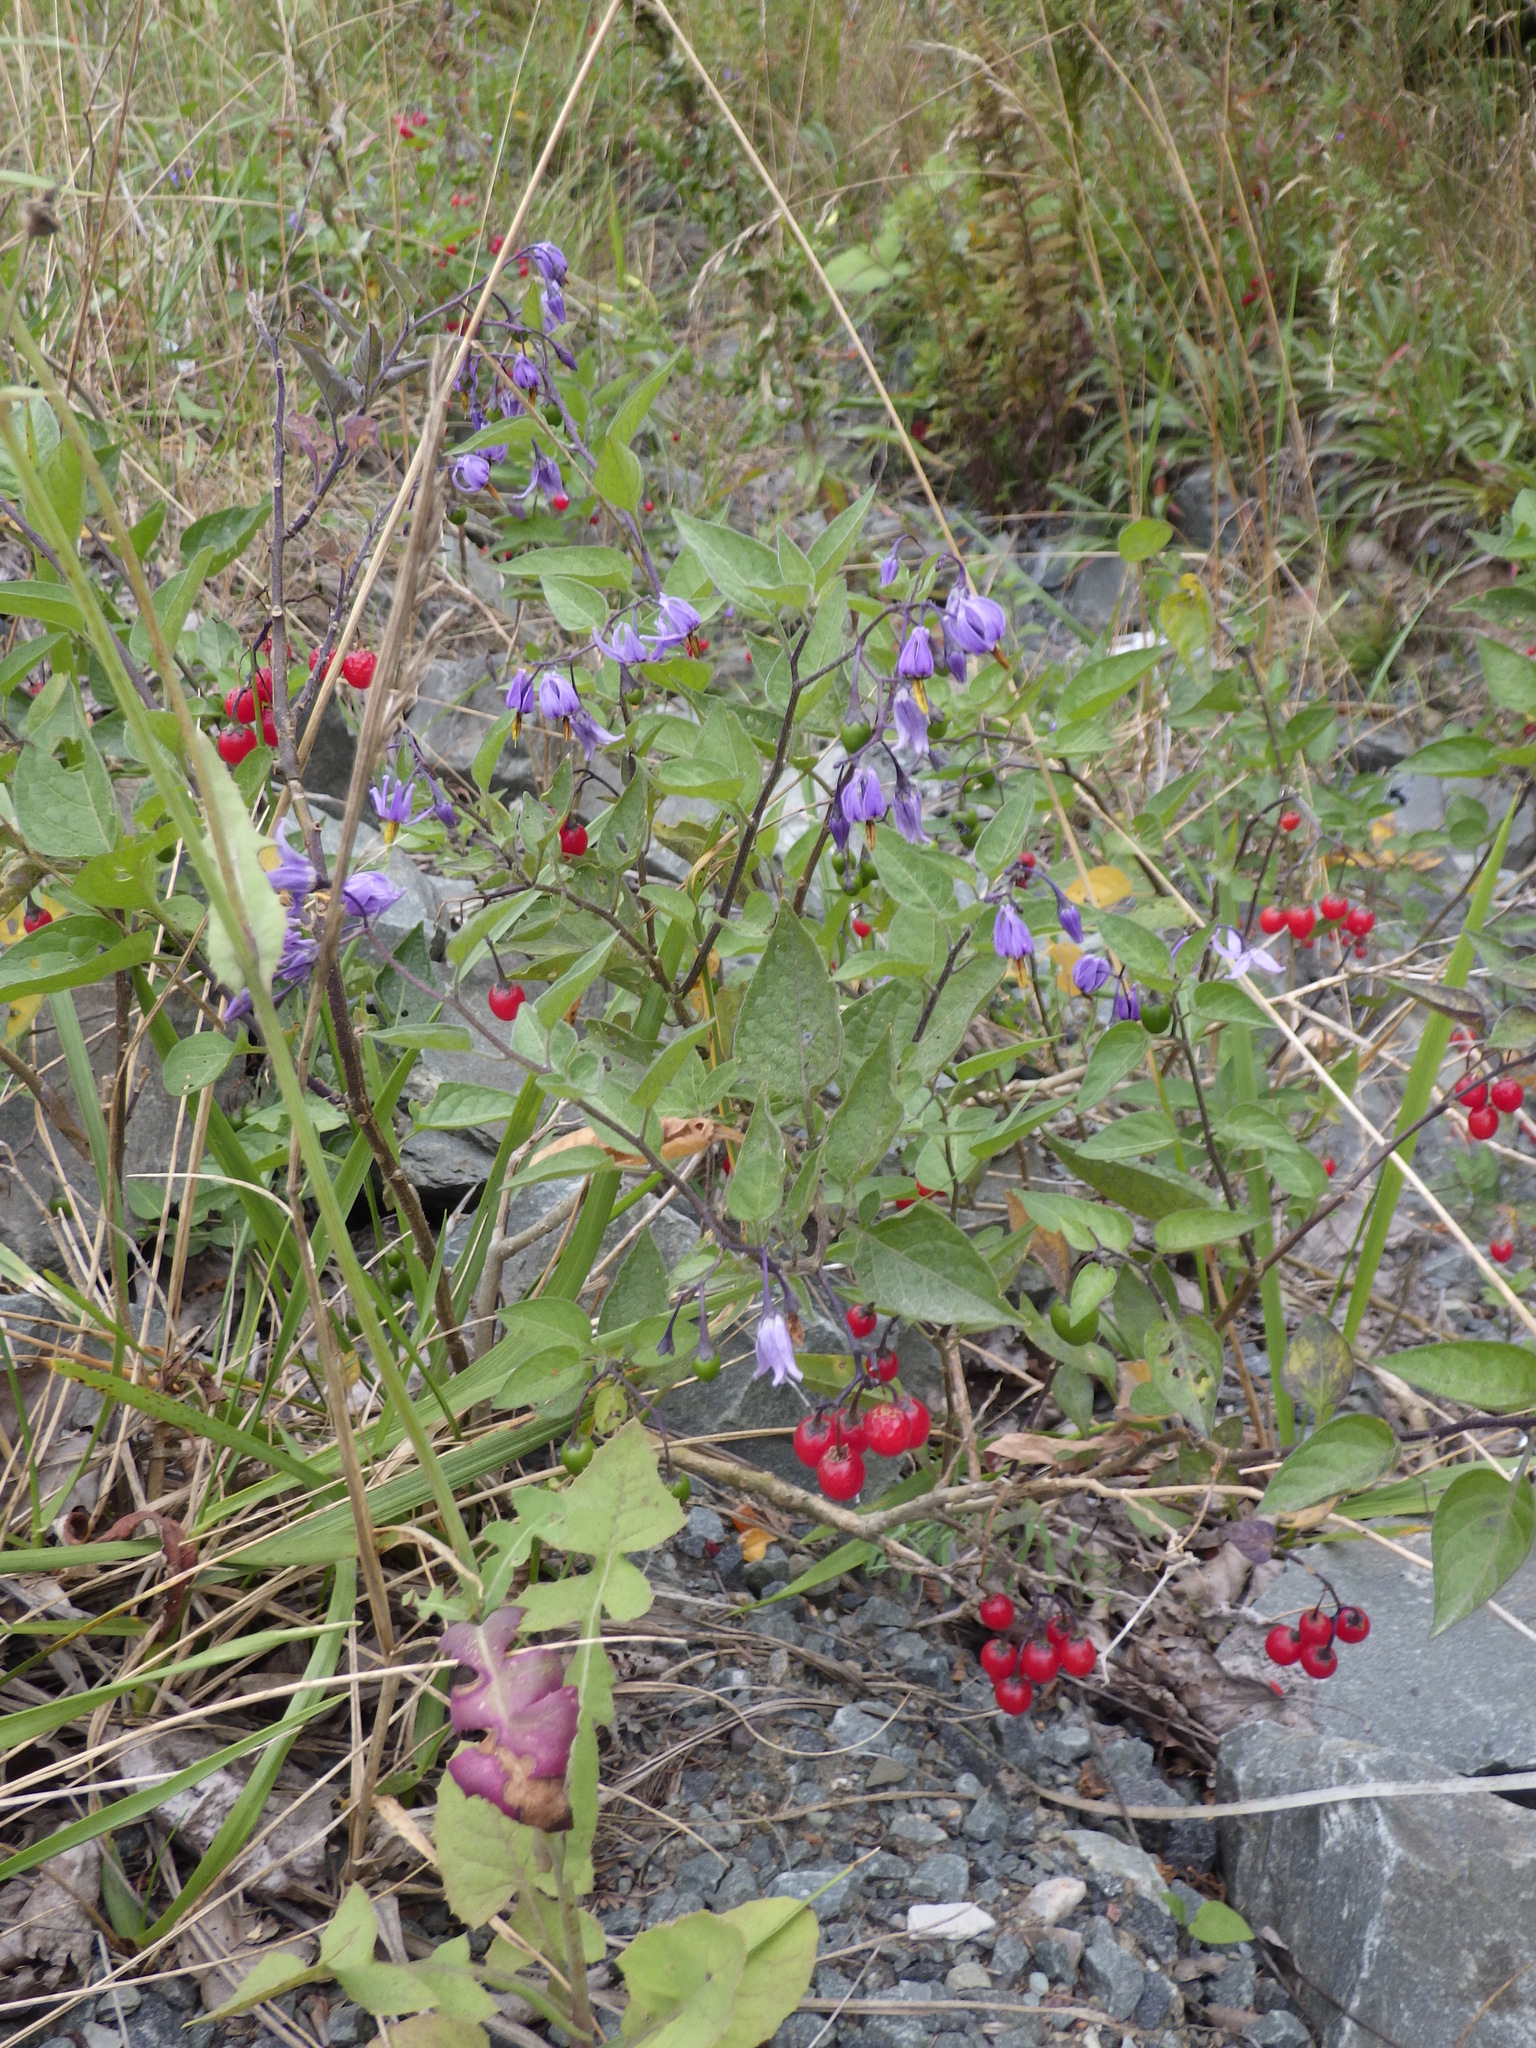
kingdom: Plantae
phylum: Tracheophyta
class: Magnoliopsida
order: Solanales
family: Solanaceae
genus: Solanum
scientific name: Solanum dulcamara
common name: Climbing nightshade
